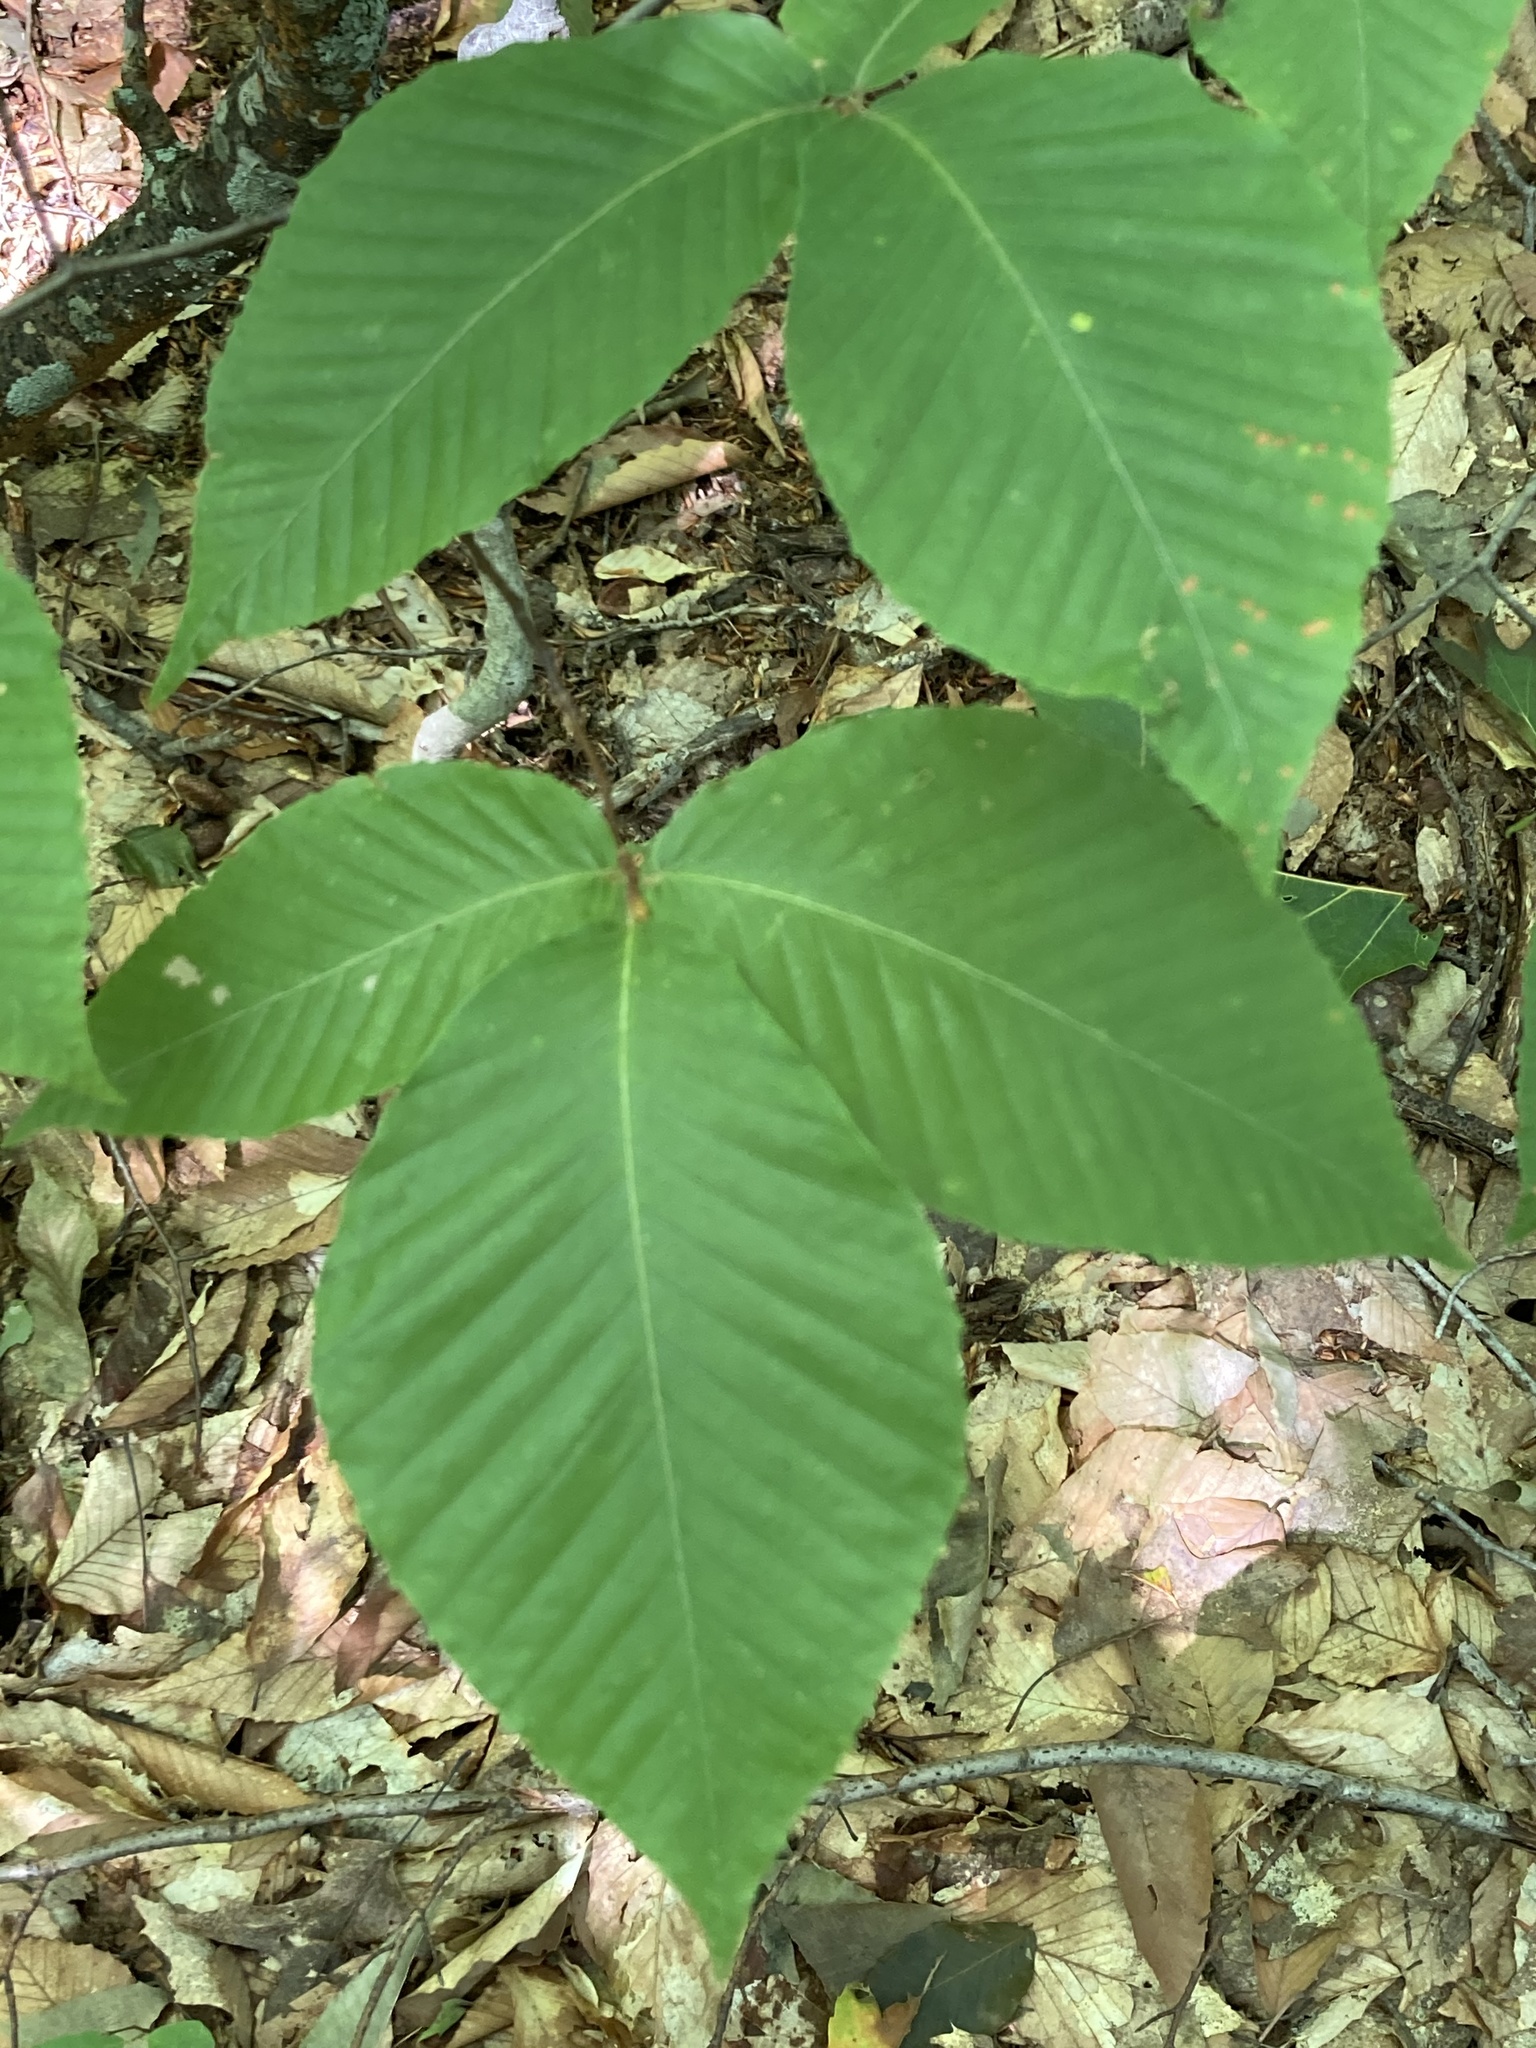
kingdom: Plantae
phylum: Tracheophyta
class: Magnoliopsida
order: Fagales
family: Fagaceae
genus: Fagus
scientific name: Fagus grandifolia
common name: American beech
